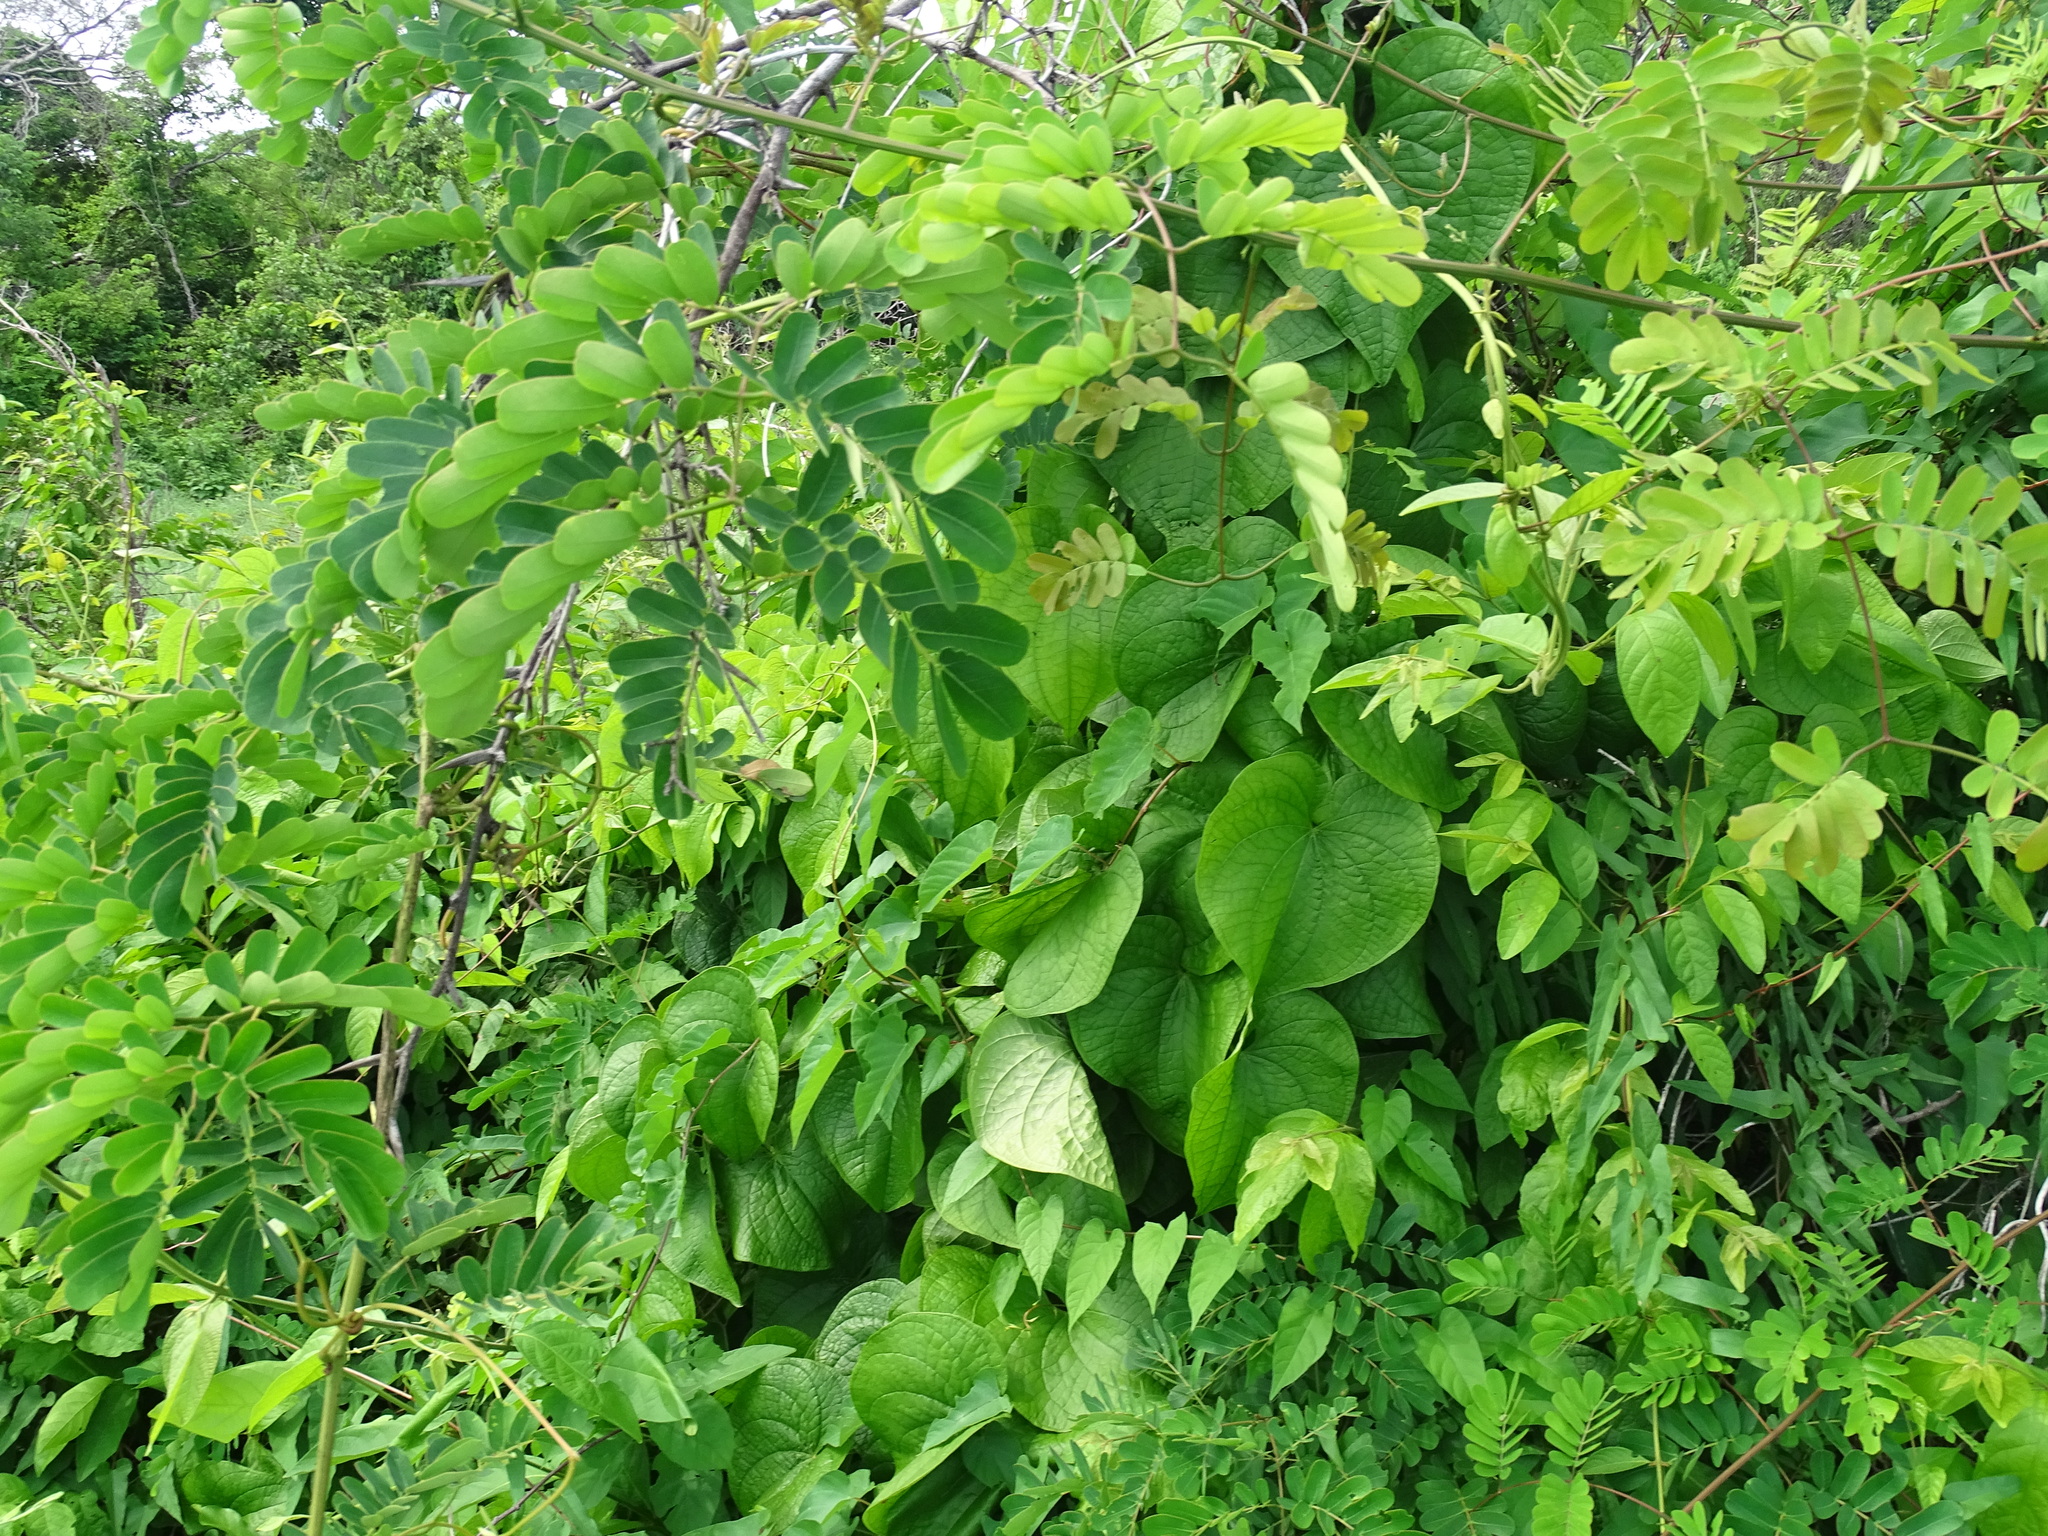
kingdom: Plantae
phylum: Tracheophyta
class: Magnoliopsida
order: Fabales
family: Fabaceae
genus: Machaerium
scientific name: Machaerium biovulatum
